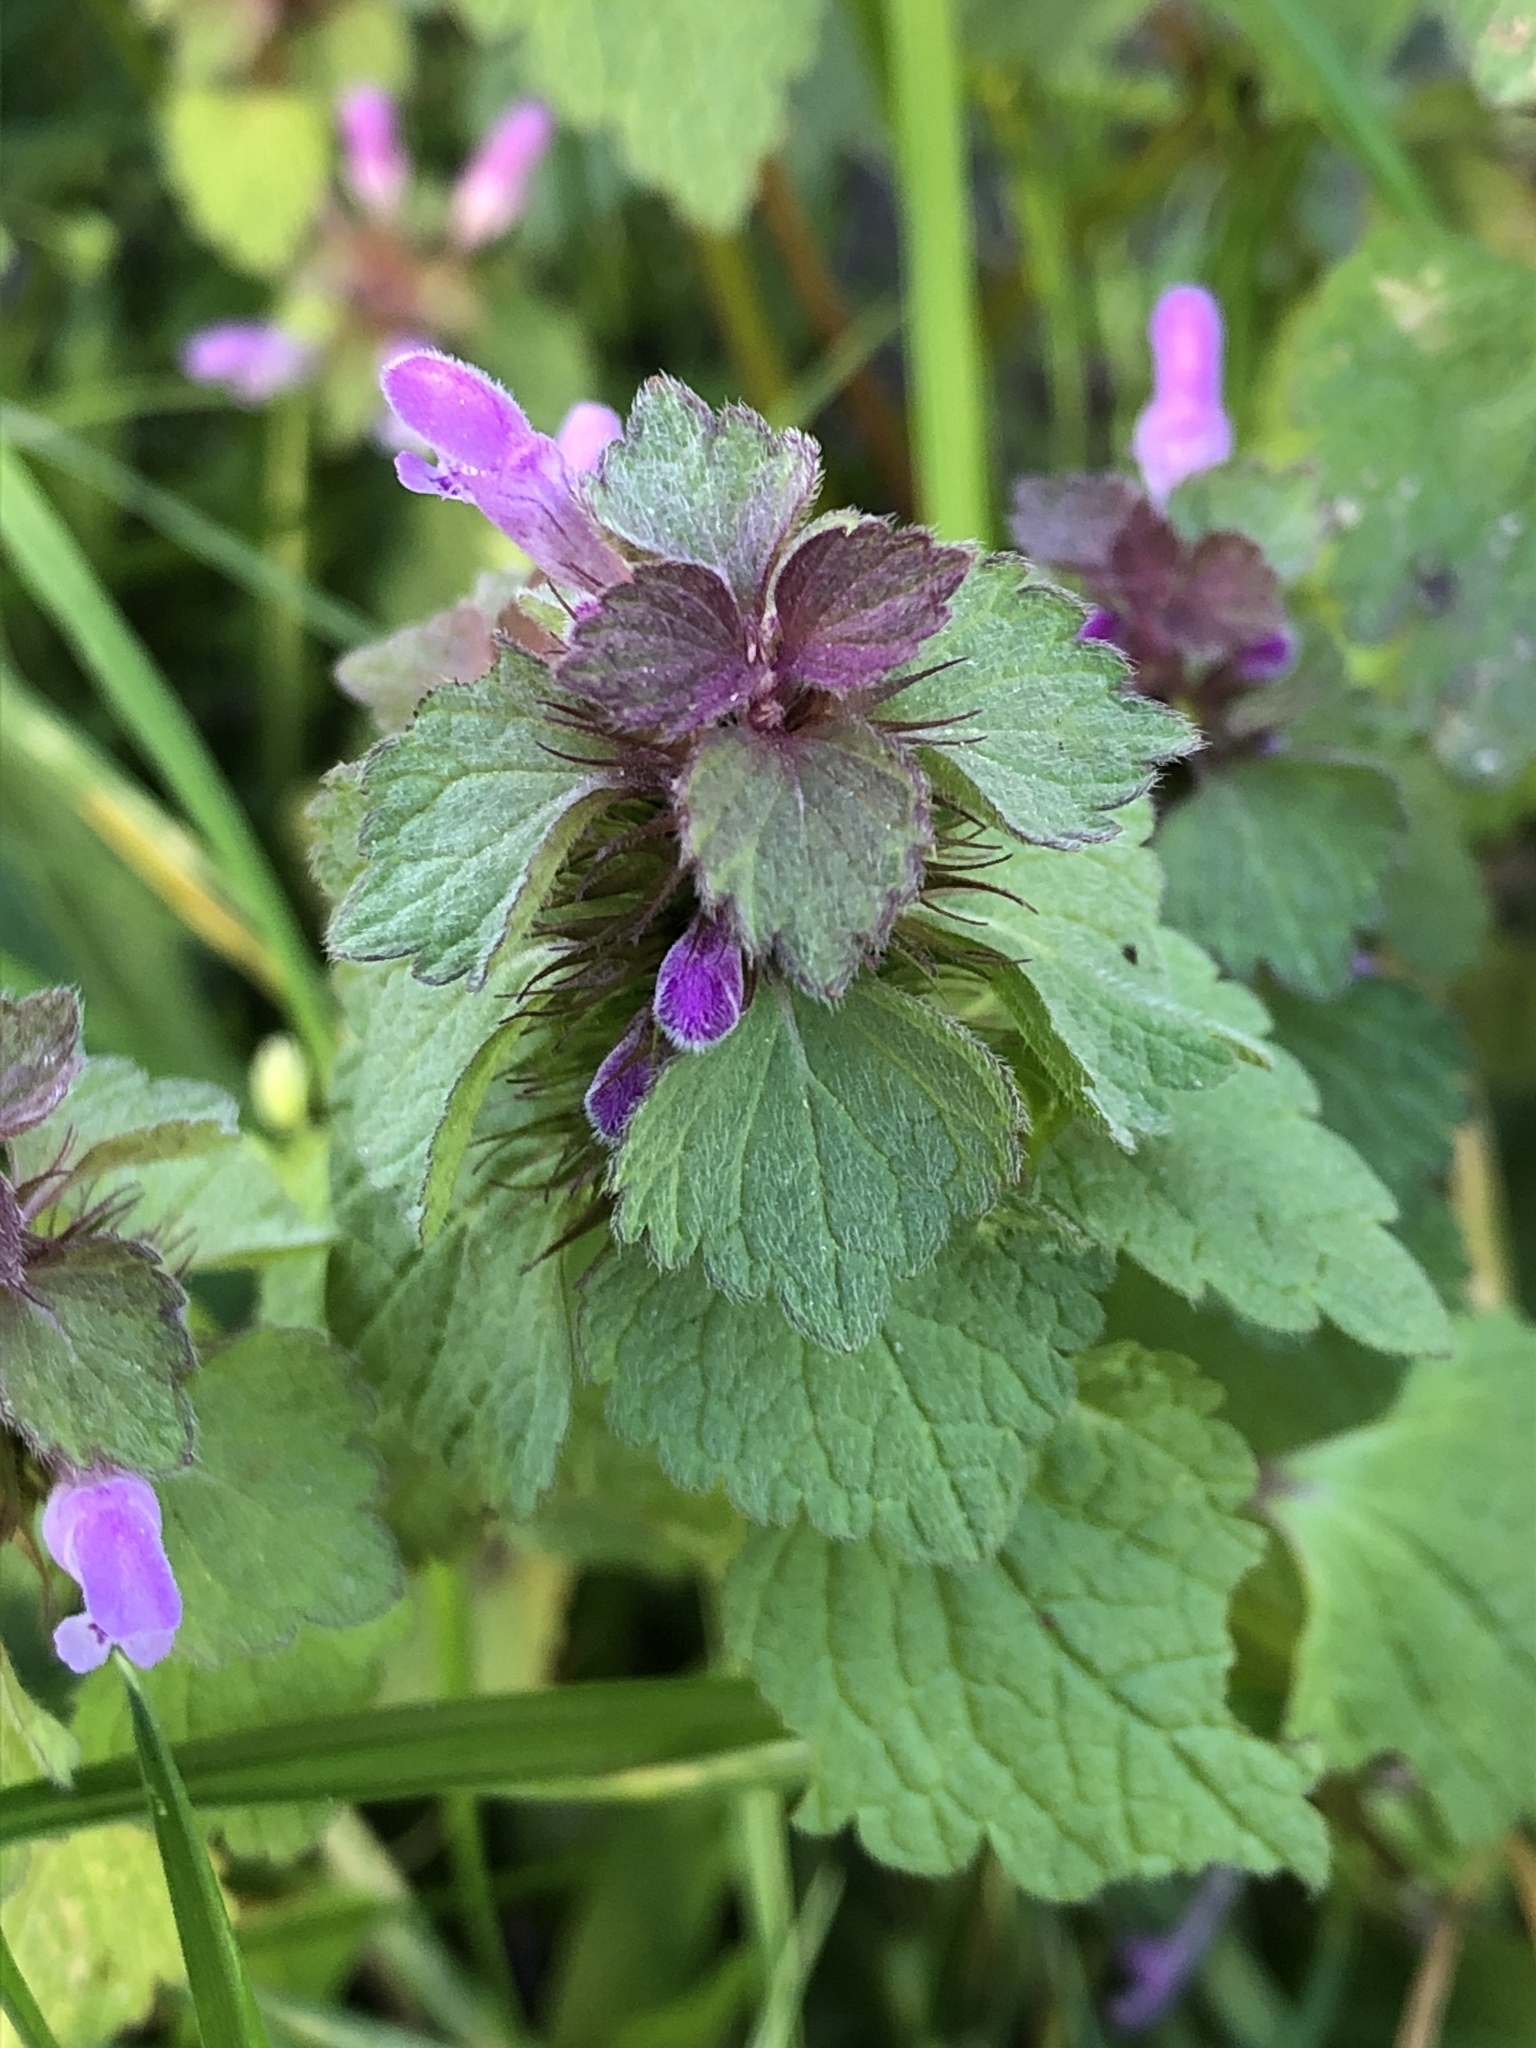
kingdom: Plantae
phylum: Tracheophyta
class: Magnoliopsida
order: Lamiales
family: Lamiaceae
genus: Lamium
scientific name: Lamium purpureum
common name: Red dead-nettle
